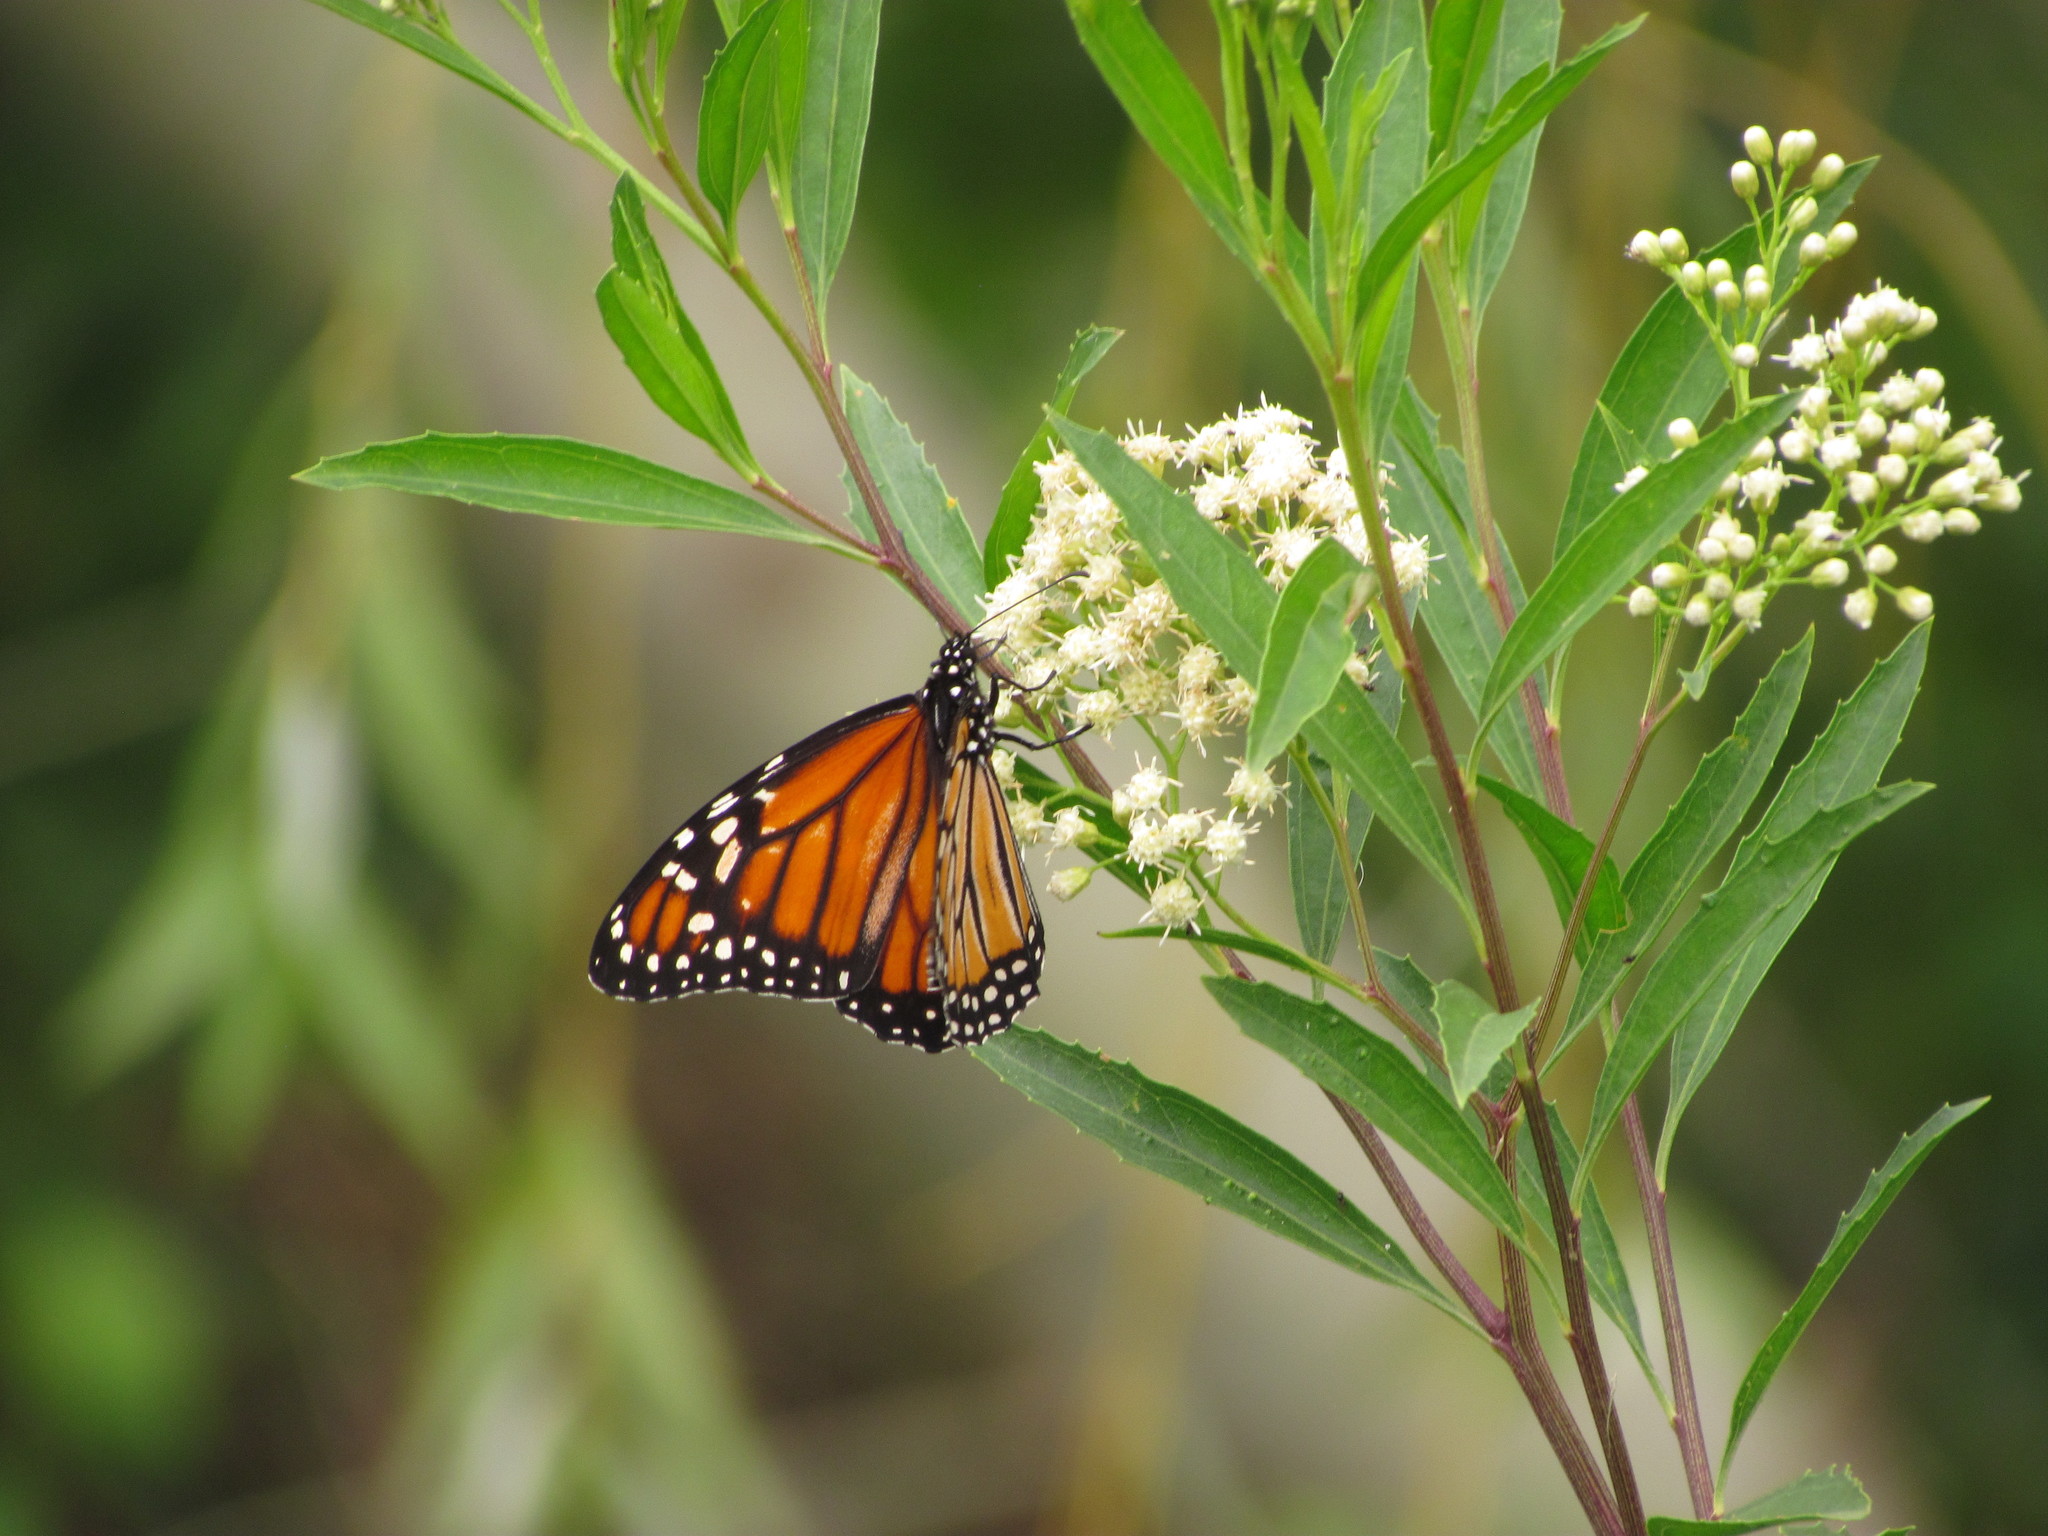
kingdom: Animalia
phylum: Arthropoda
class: Insecta
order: Lepidoptera
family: Nymphalidae
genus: Danaus
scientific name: Danaus erippus
